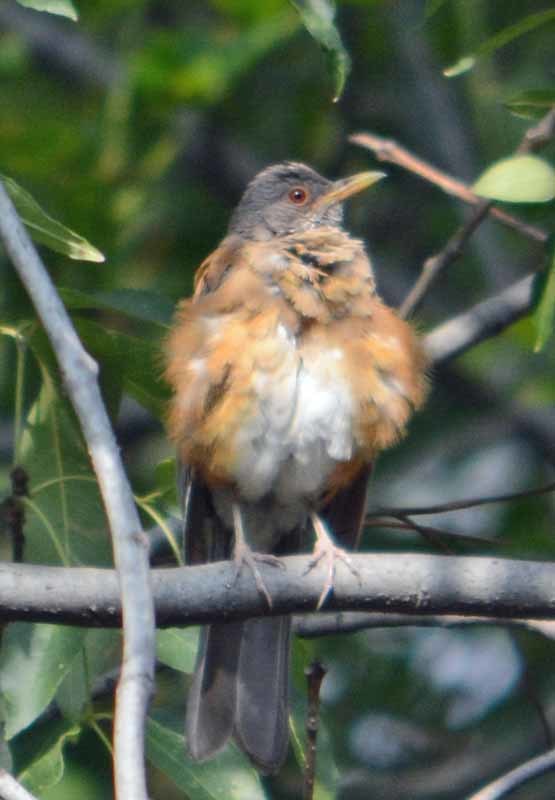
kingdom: Animalia
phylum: Chordata
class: Aves
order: Passeriformes
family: Turdidae
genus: Turdus
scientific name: Turdus rufopalliatus
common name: Rufous-backed robin
